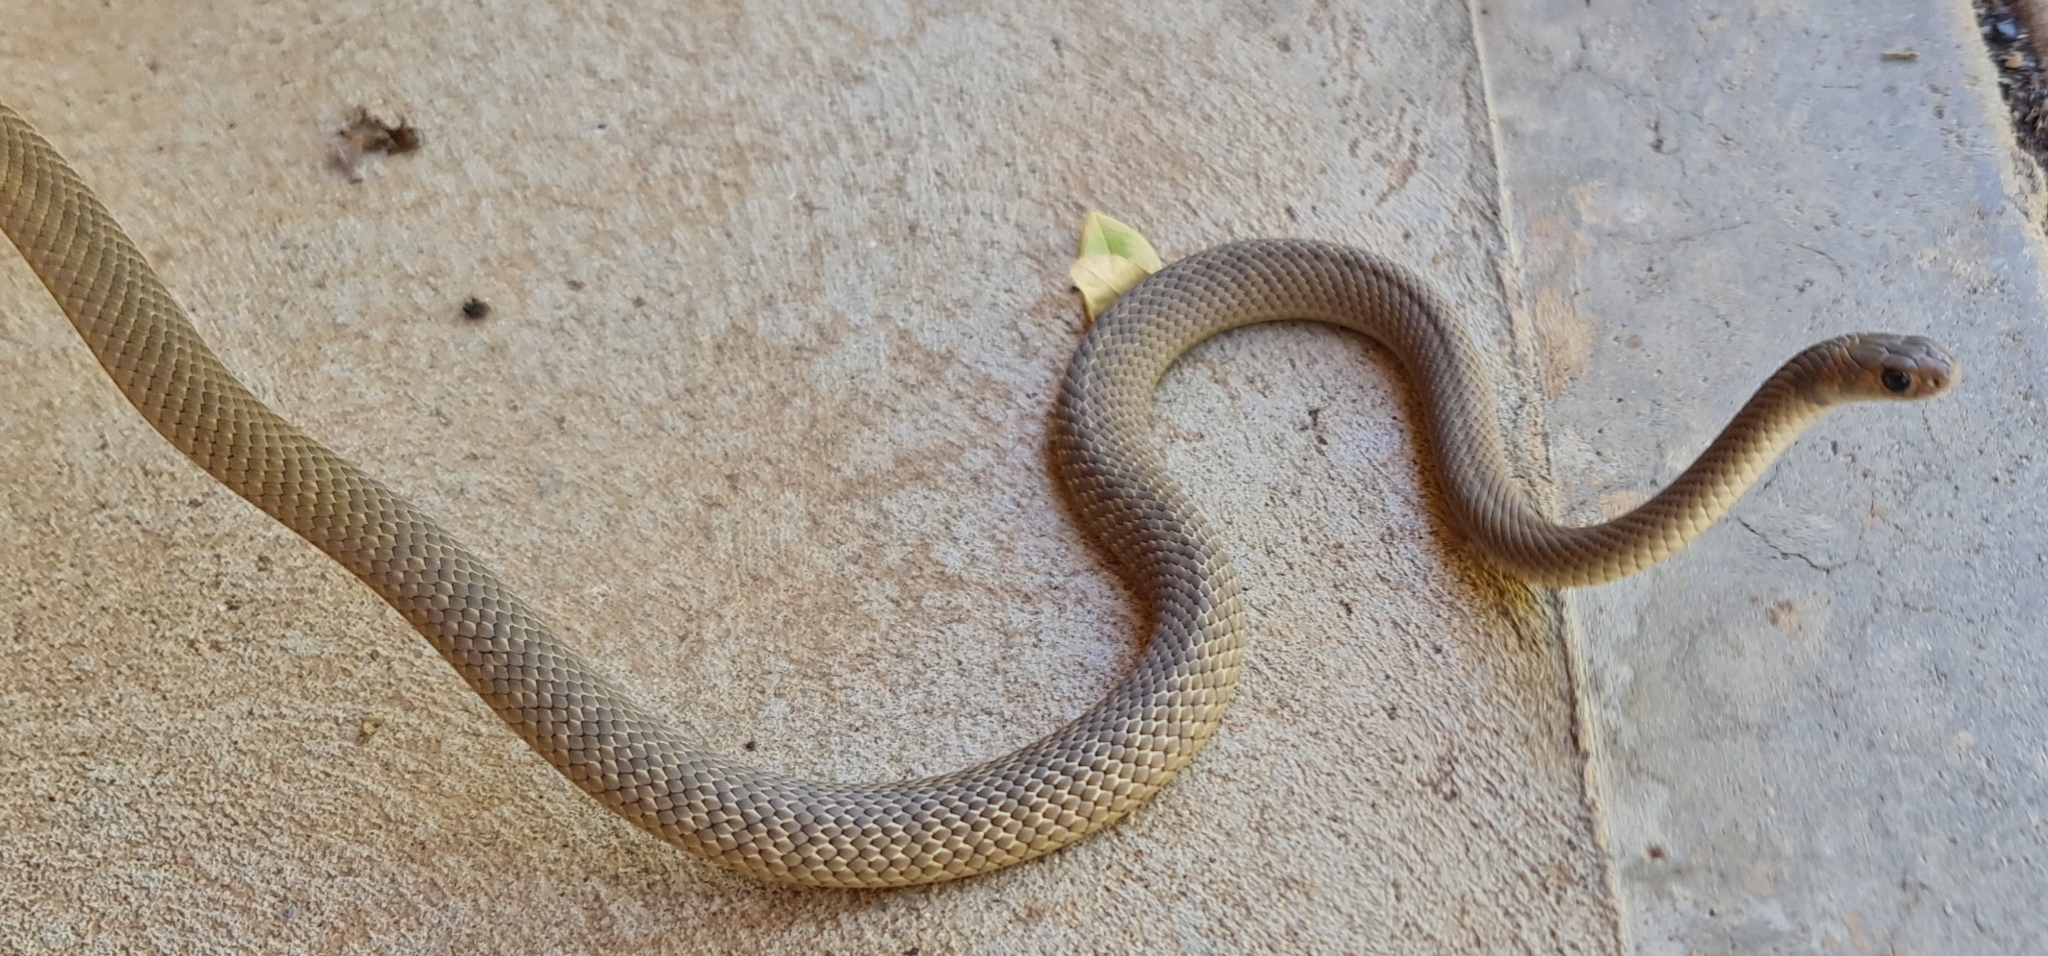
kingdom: Animalia
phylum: Chordata
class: Squamata
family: Elapidae
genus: Pseudonaja
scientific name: Pseudonaja textilis
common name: Eastern brown snake
